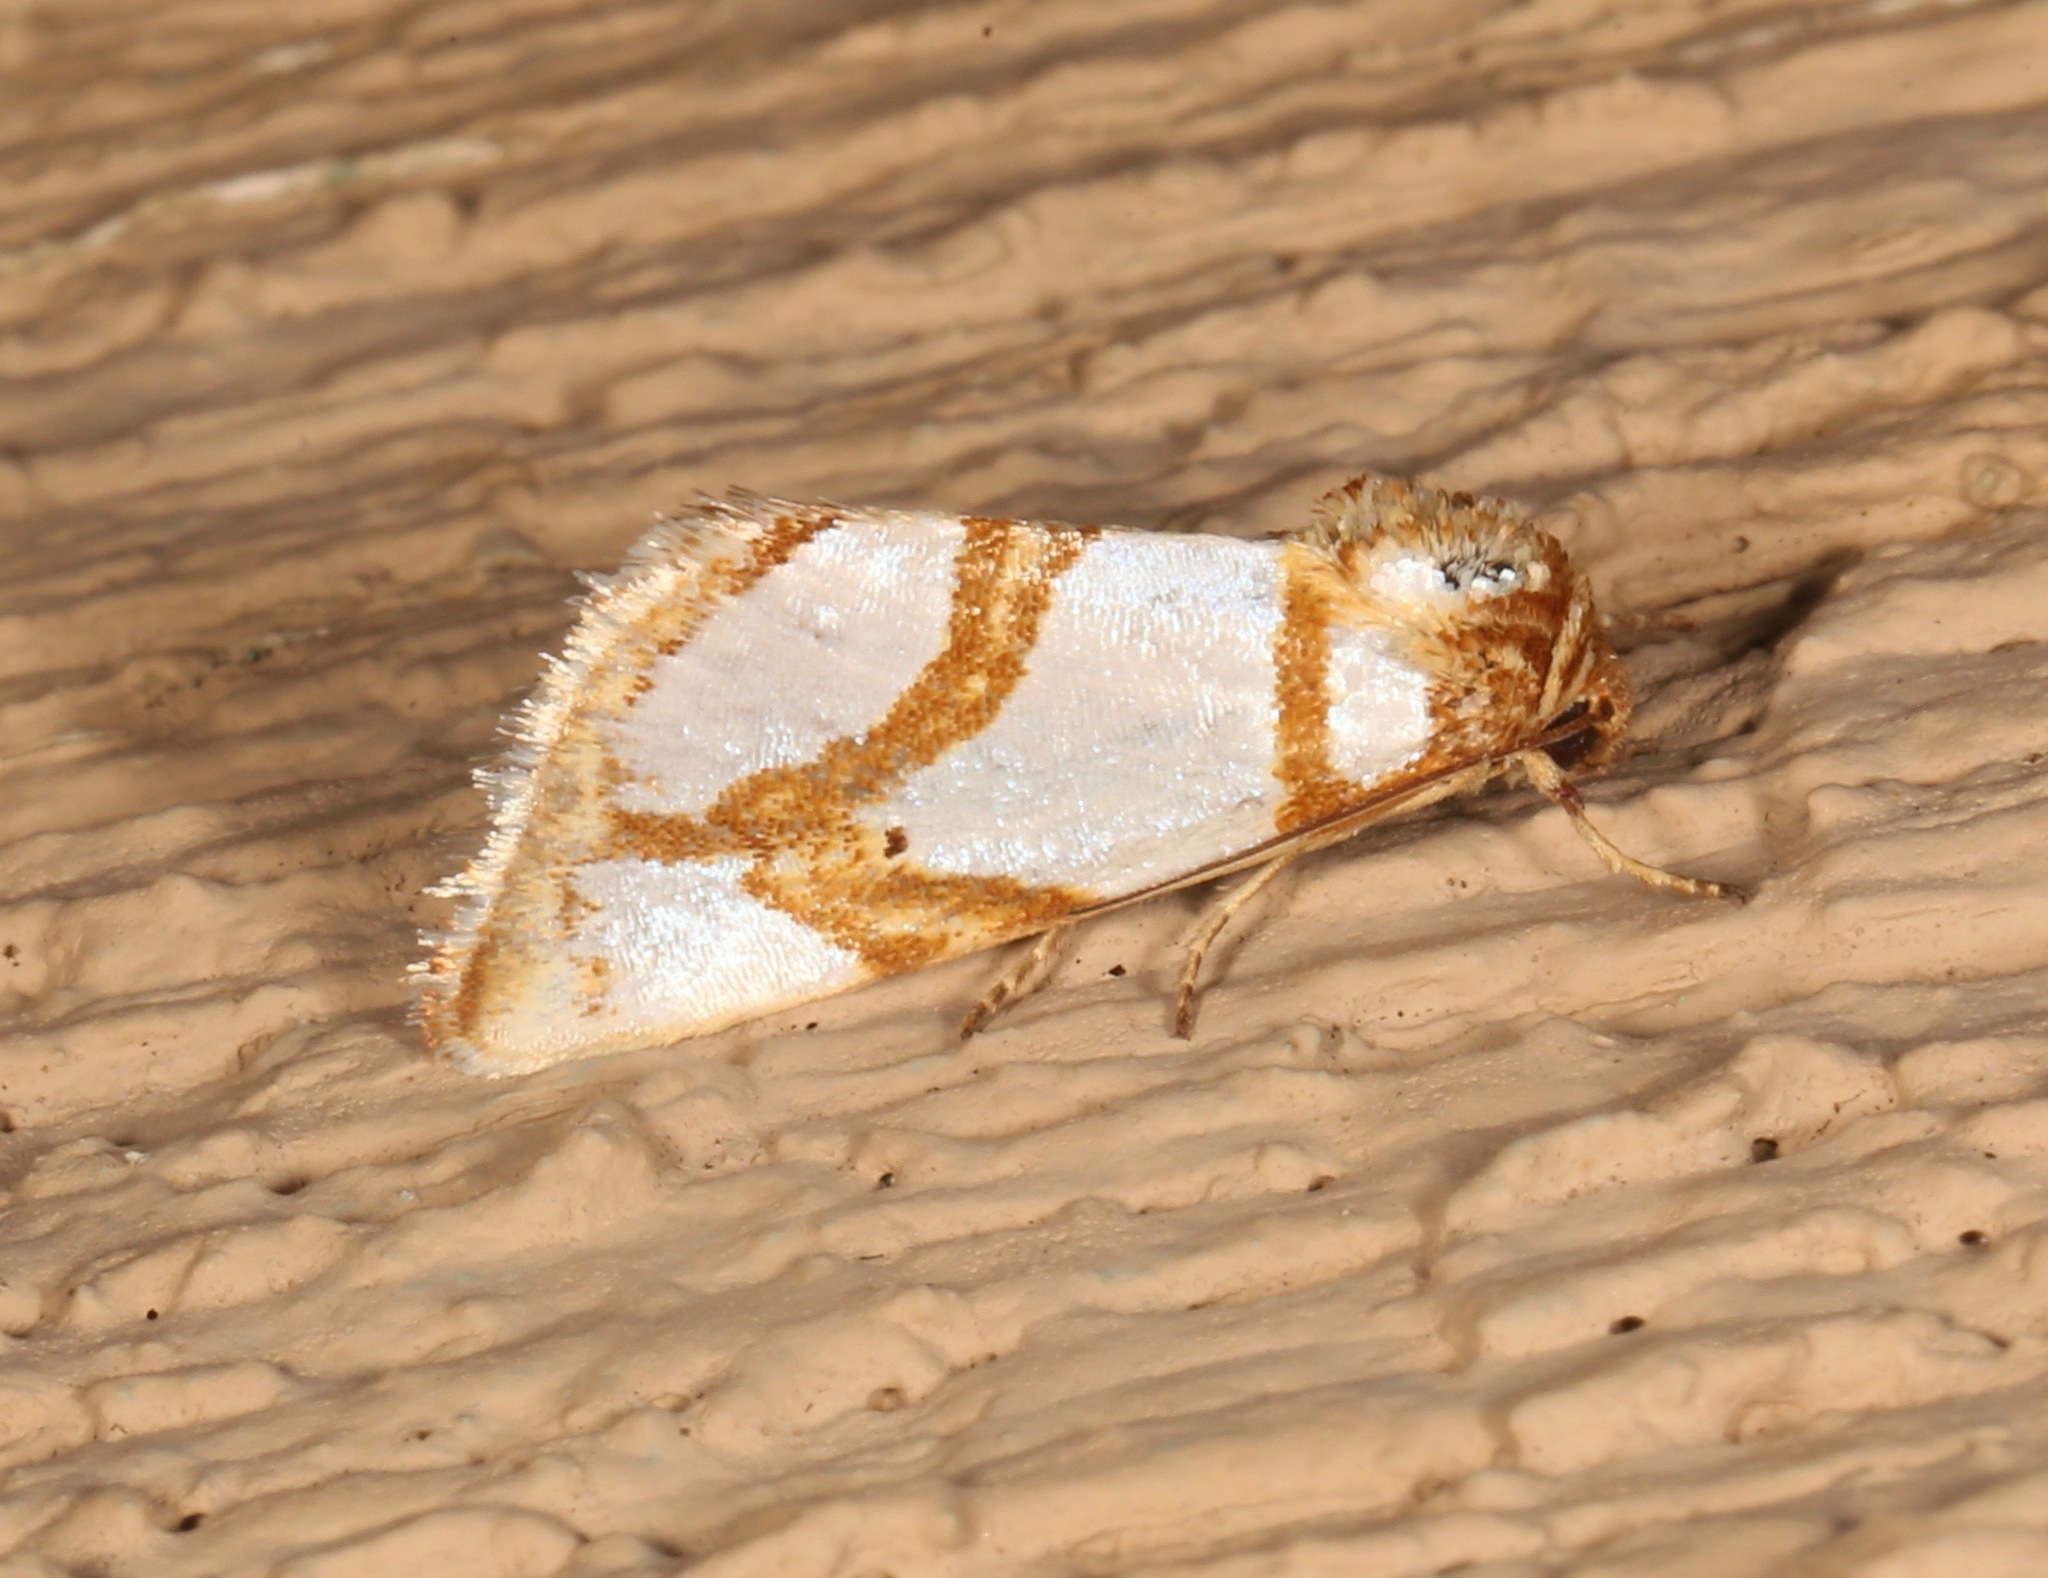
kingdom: Animalia
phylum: Arthropoda
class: Insecta
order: Lepidoptera
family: Noctuidae
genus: Argentostiria
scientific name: Argentostiria koebelei
